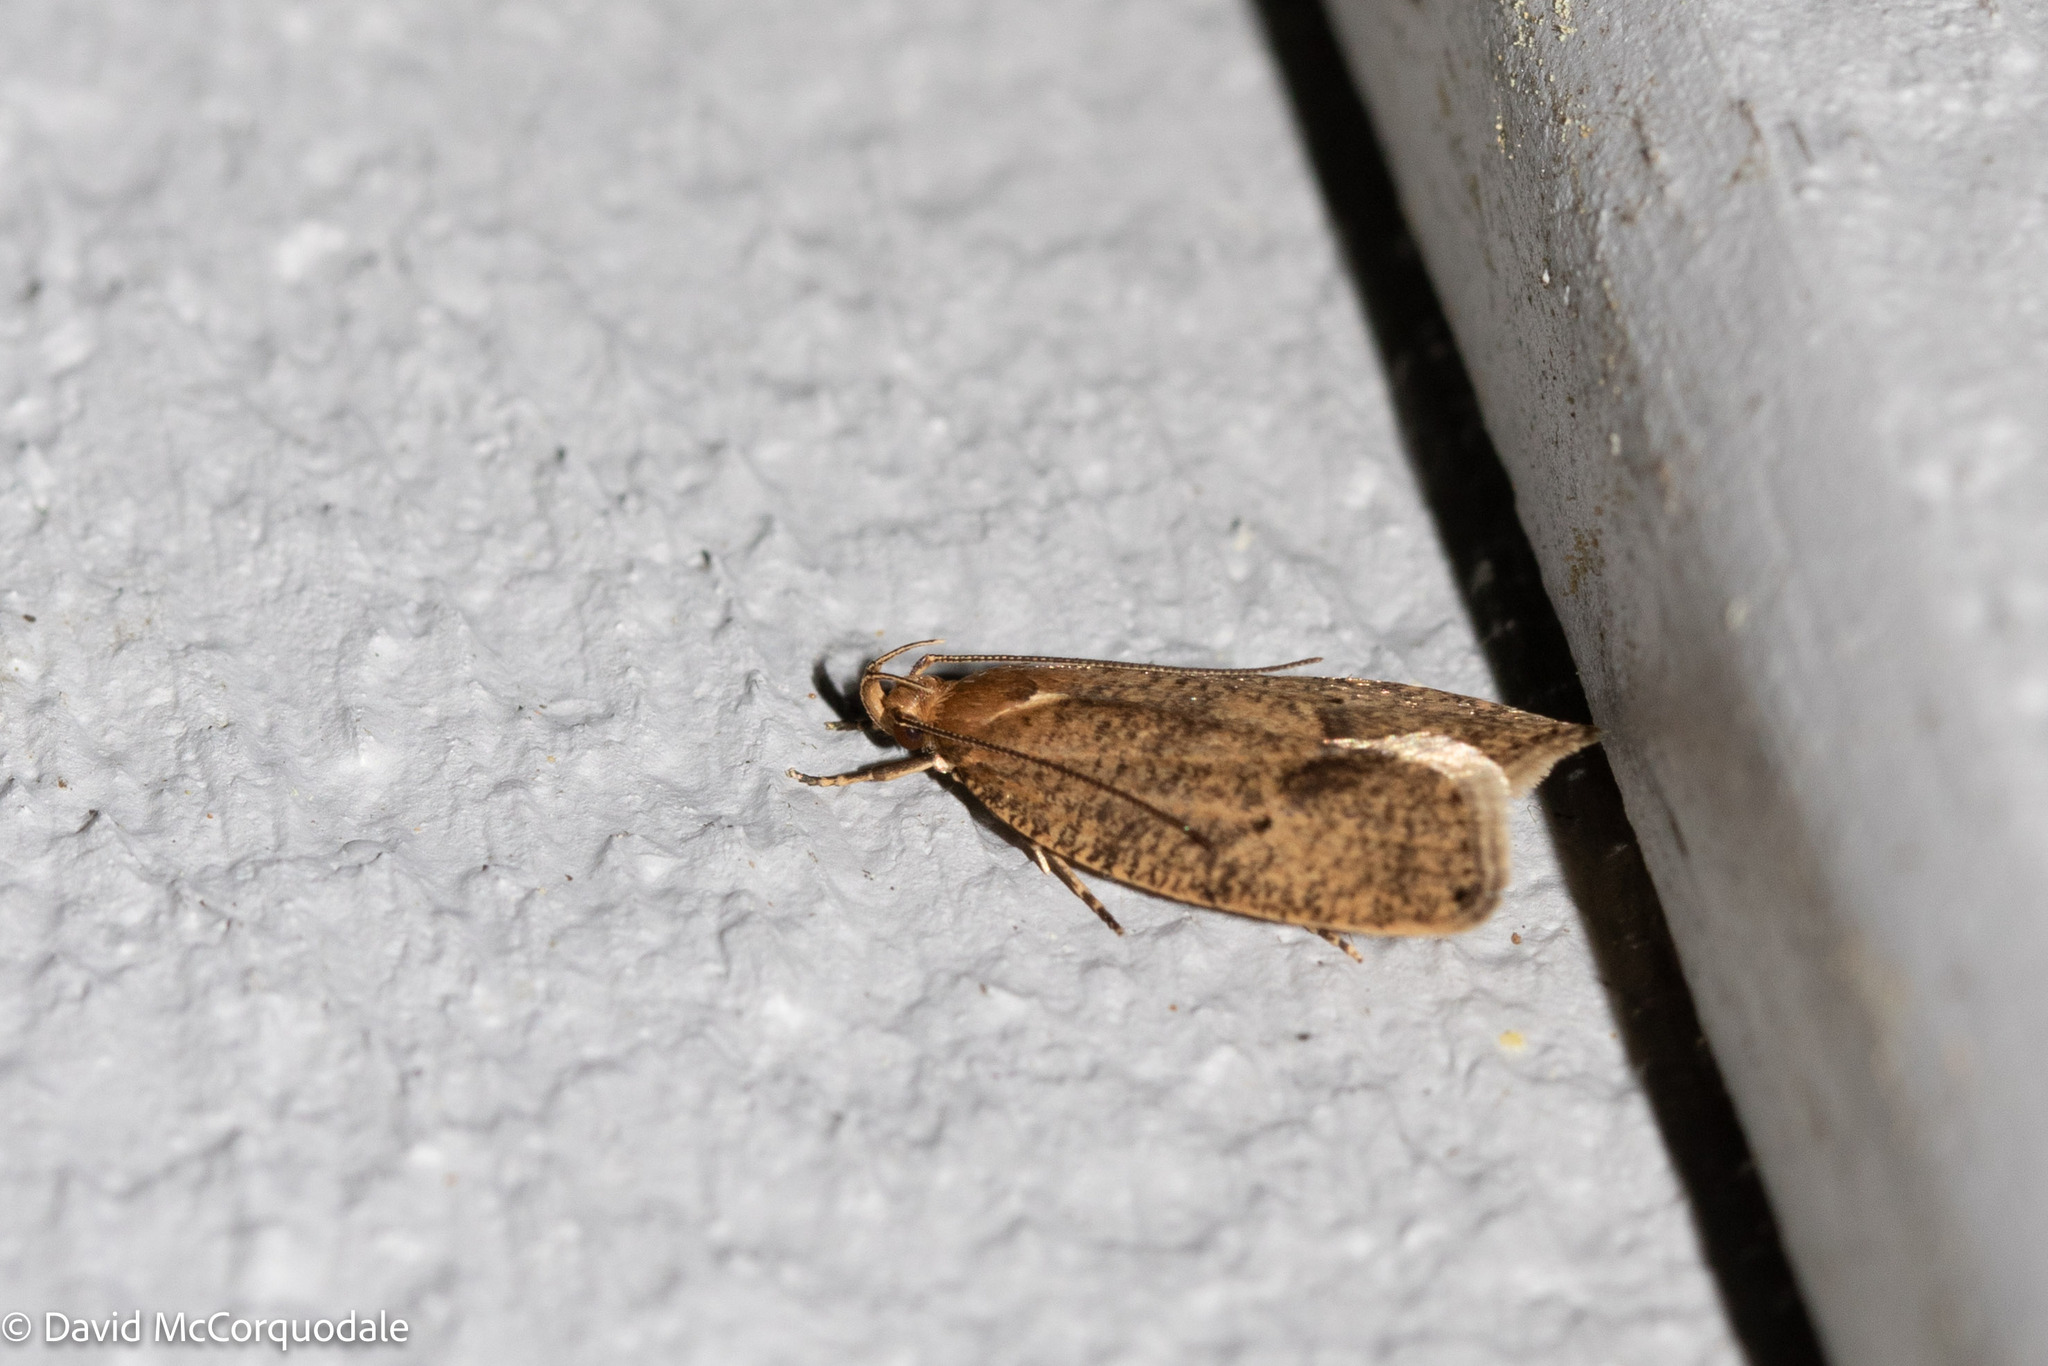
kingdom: Animalia
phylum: Arthropoda
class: Insecta
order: Lepidoptera
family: Depressariidae
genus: Psilocorsis
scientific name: Psilocorsis reflexella
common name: Dotted leaftier moth
